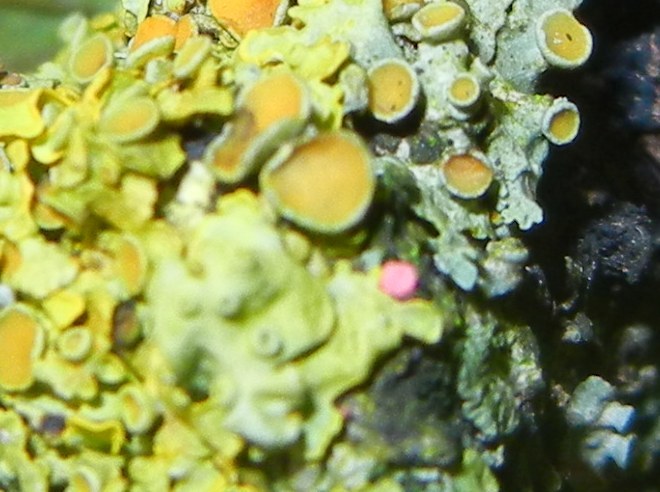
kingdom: Fungi
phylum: Ascomycota
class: Sordariomycetes
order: Hypocreales
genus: Illosporiopsis
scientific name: Illosporiopsis christiansenii
